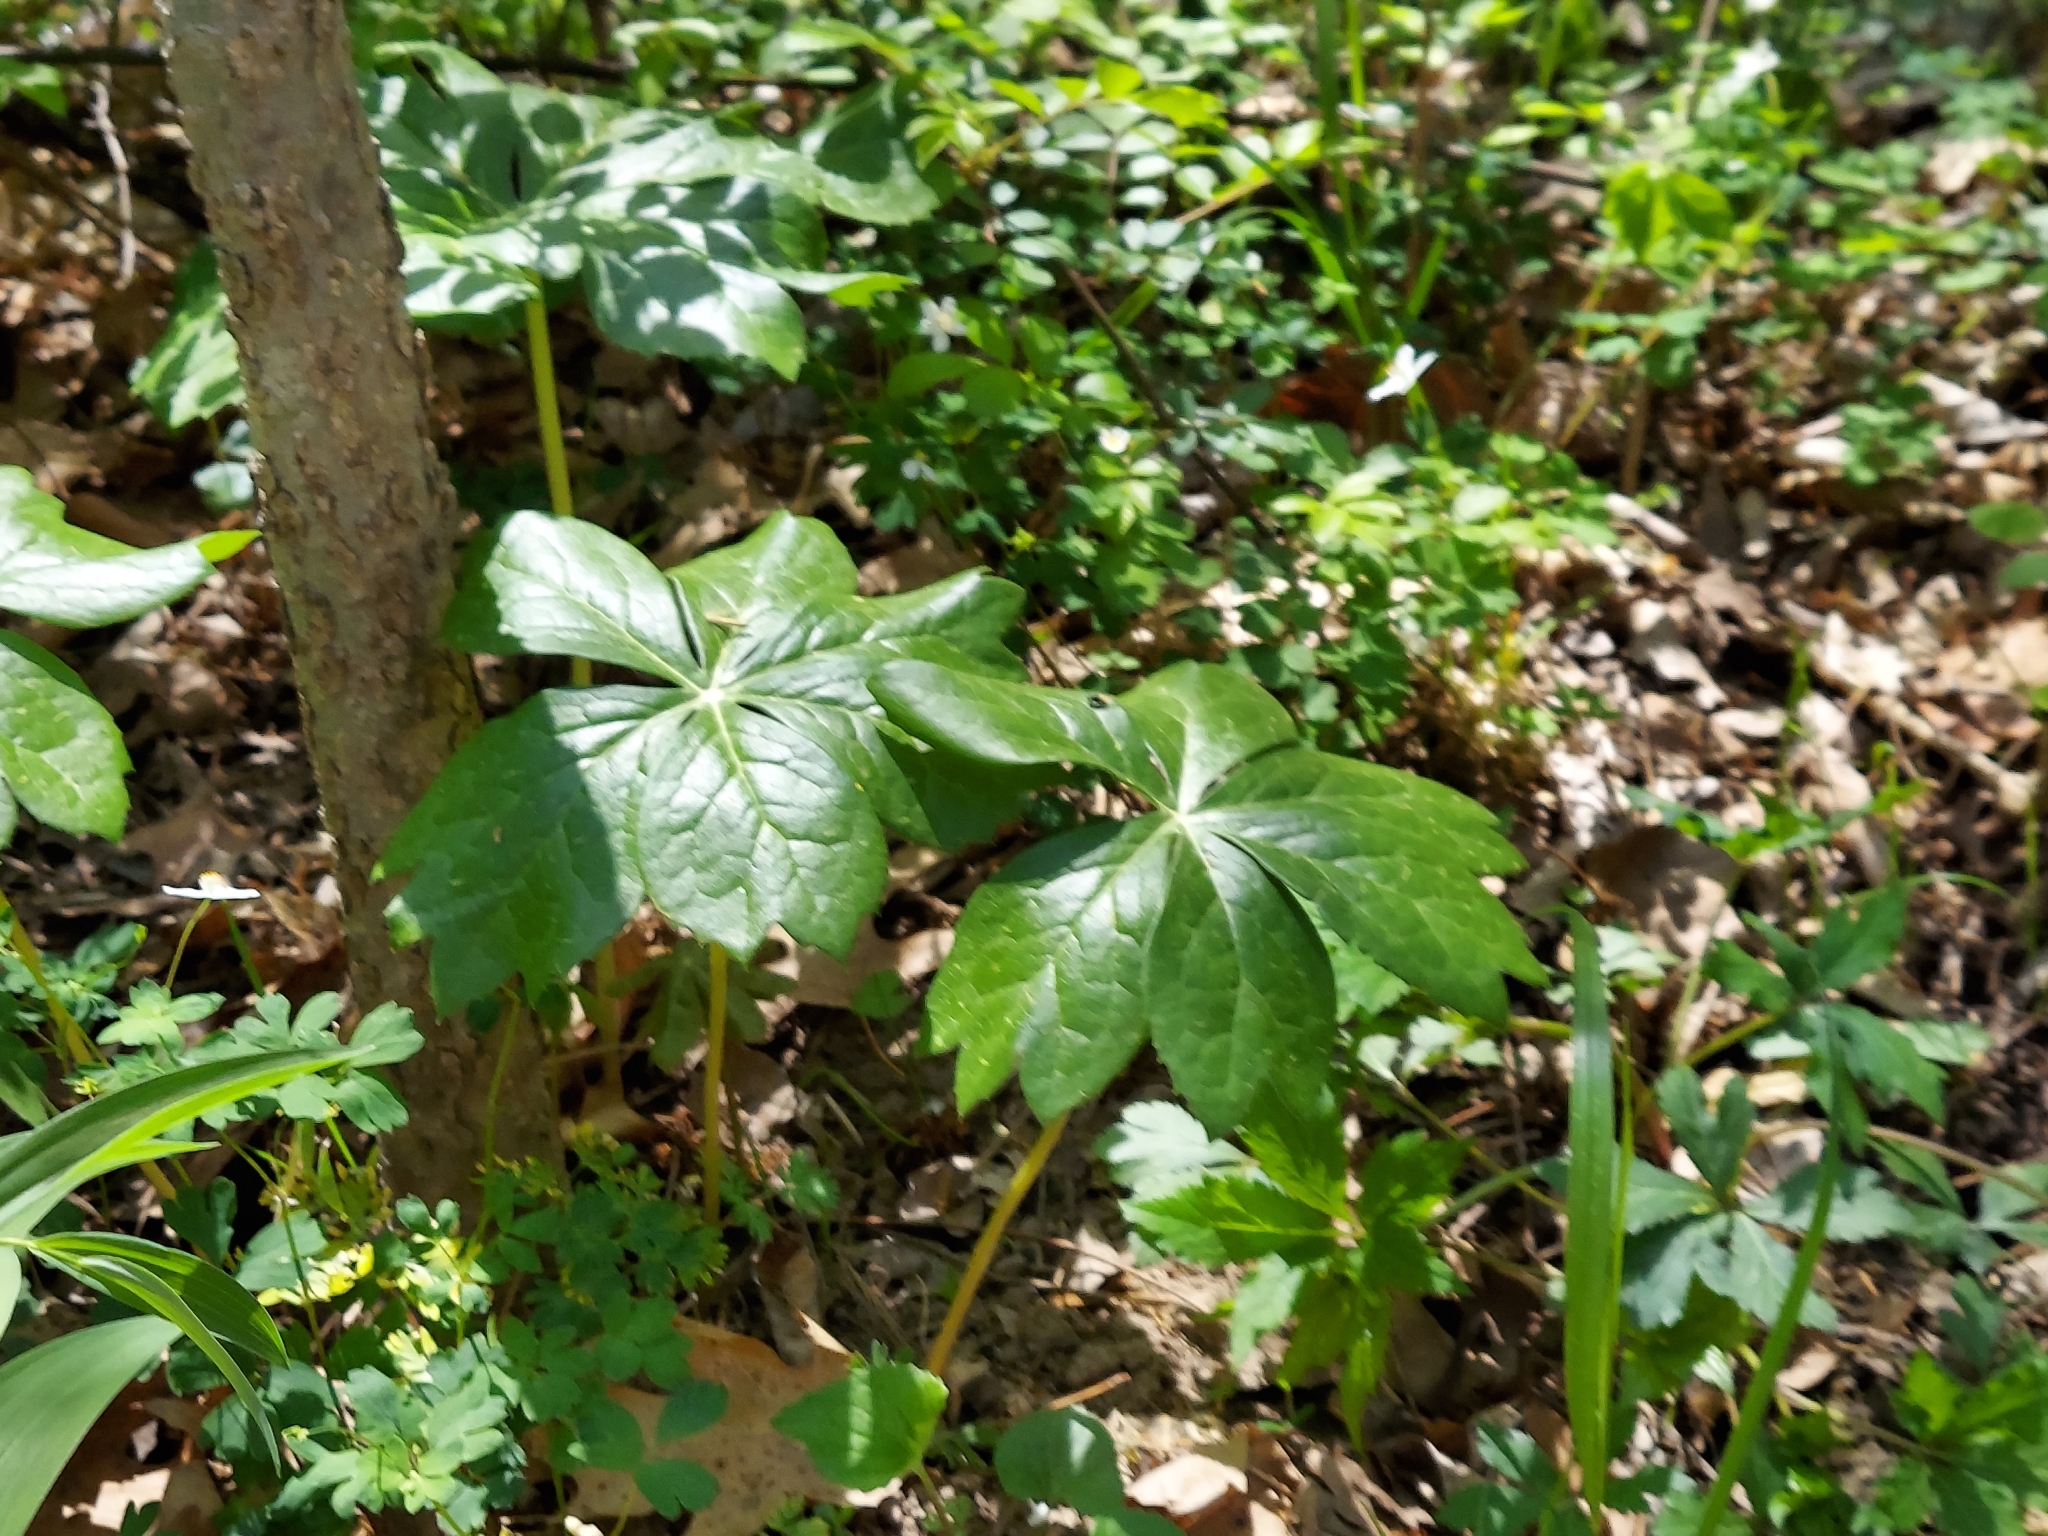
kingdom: Plantae
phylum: Tracheophyta
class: Magnoliopsida
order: Ranunculales
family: Berberidaceae
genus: Podophyllum
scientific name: Podophyllum peltatum
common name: Wild mandrake
